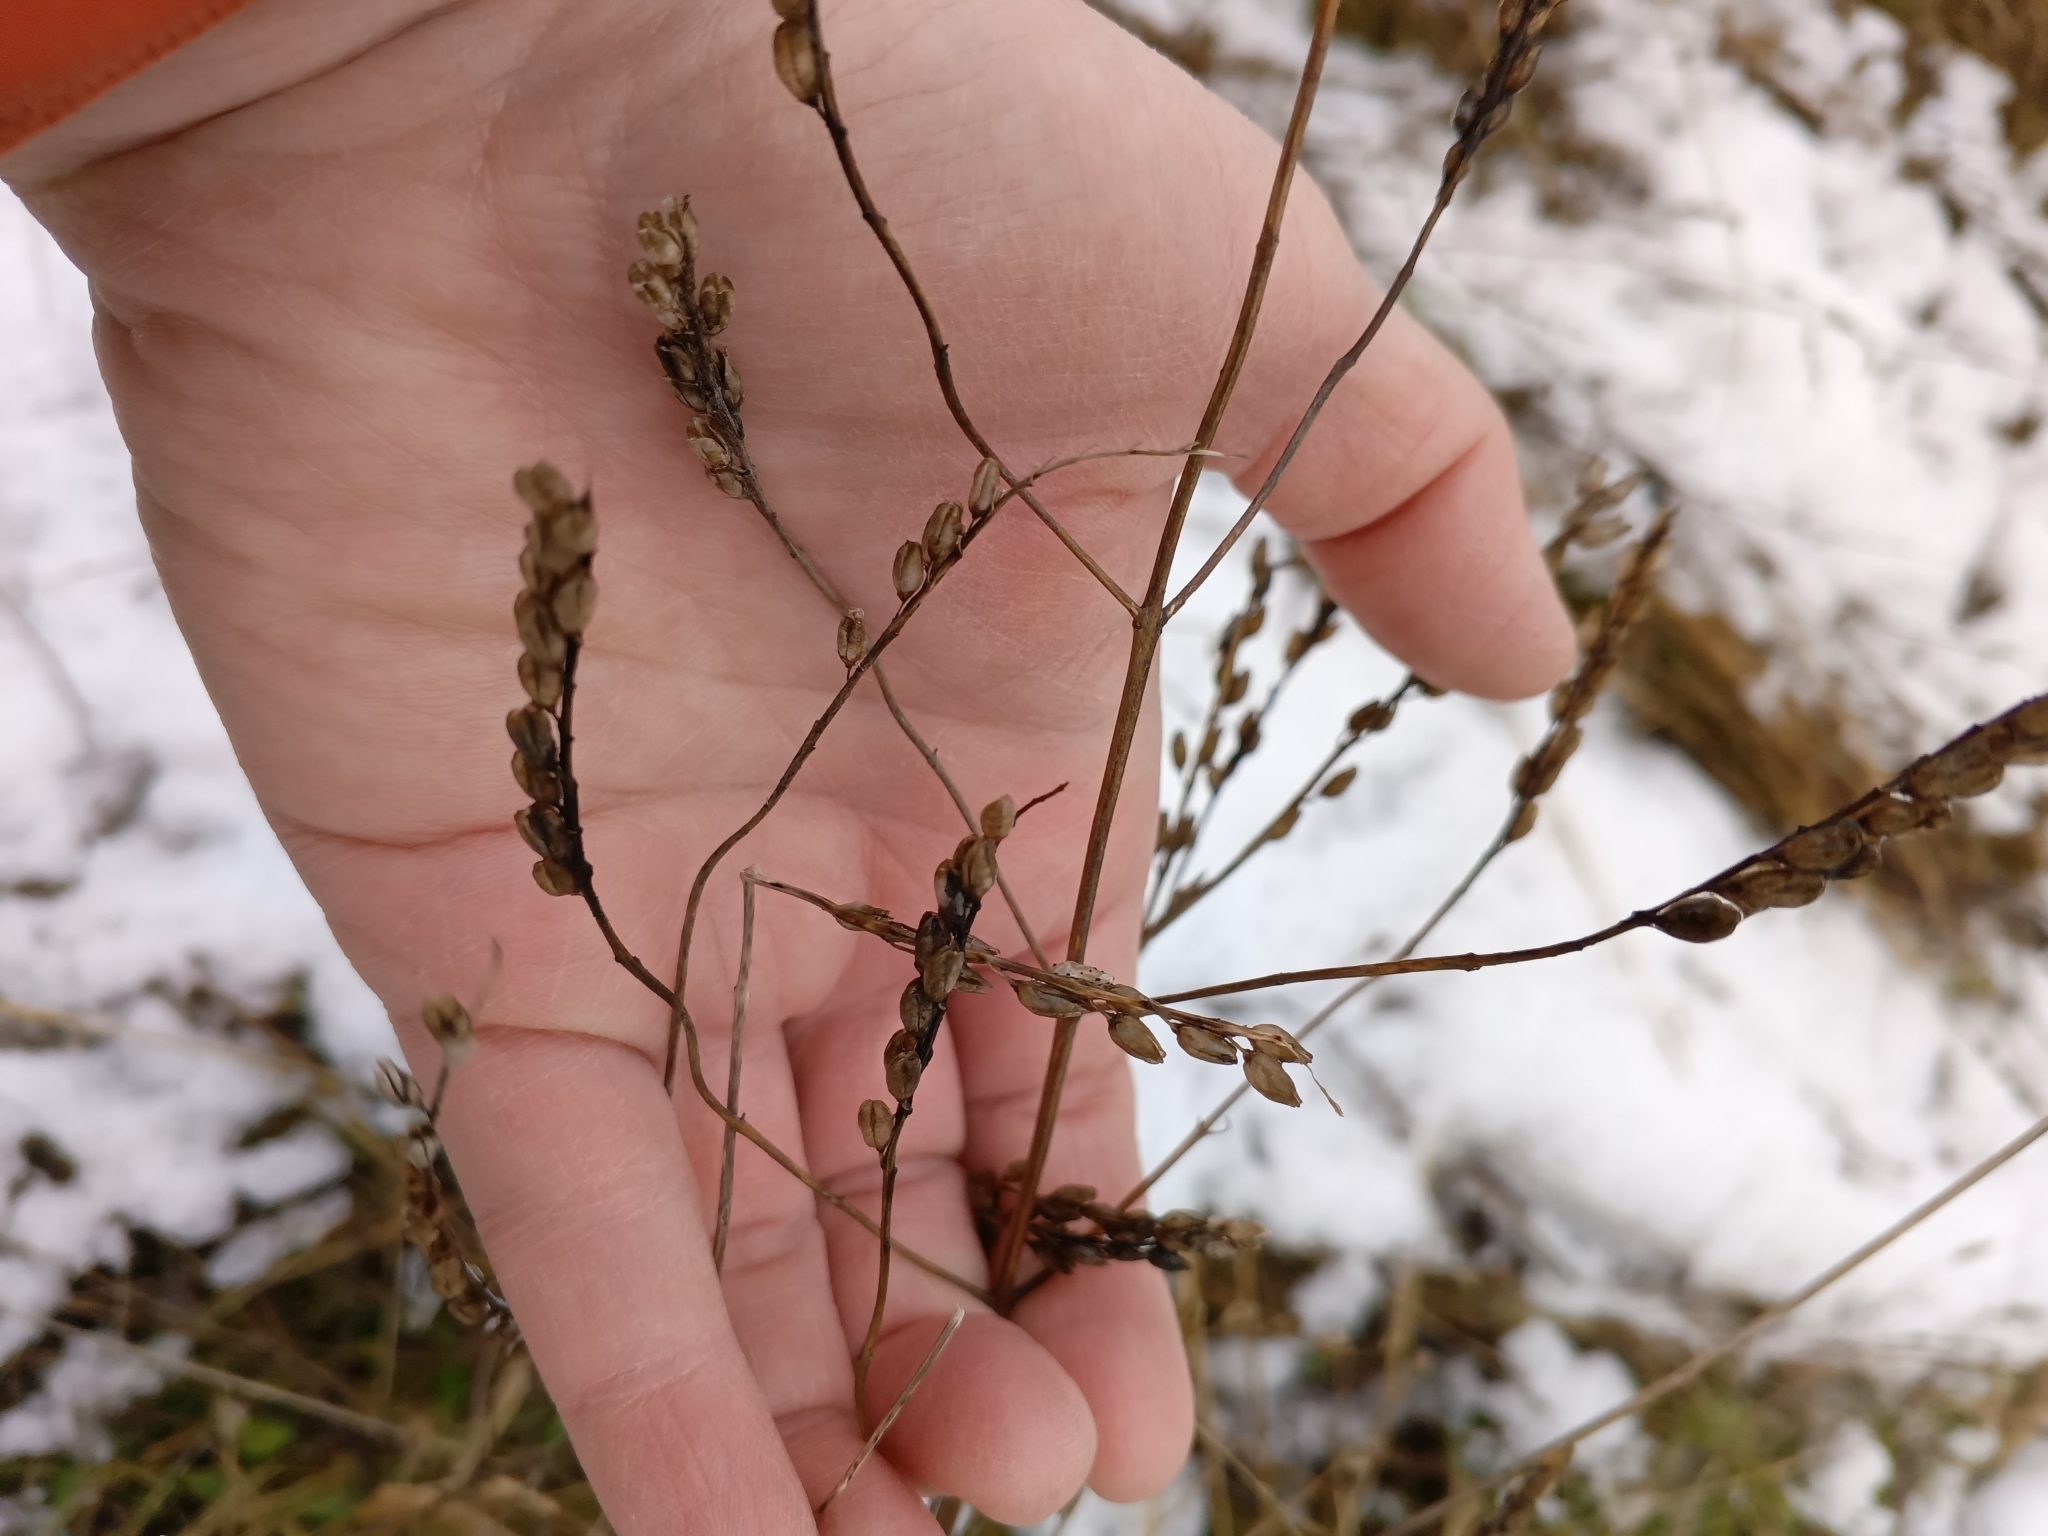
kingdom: Plantae
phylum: Tracheophyta
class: Magnoliopsida
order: Lamiales
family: Orobanchaceae
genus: Odontites
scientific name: Odontites vulgaris
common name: Broomrape
